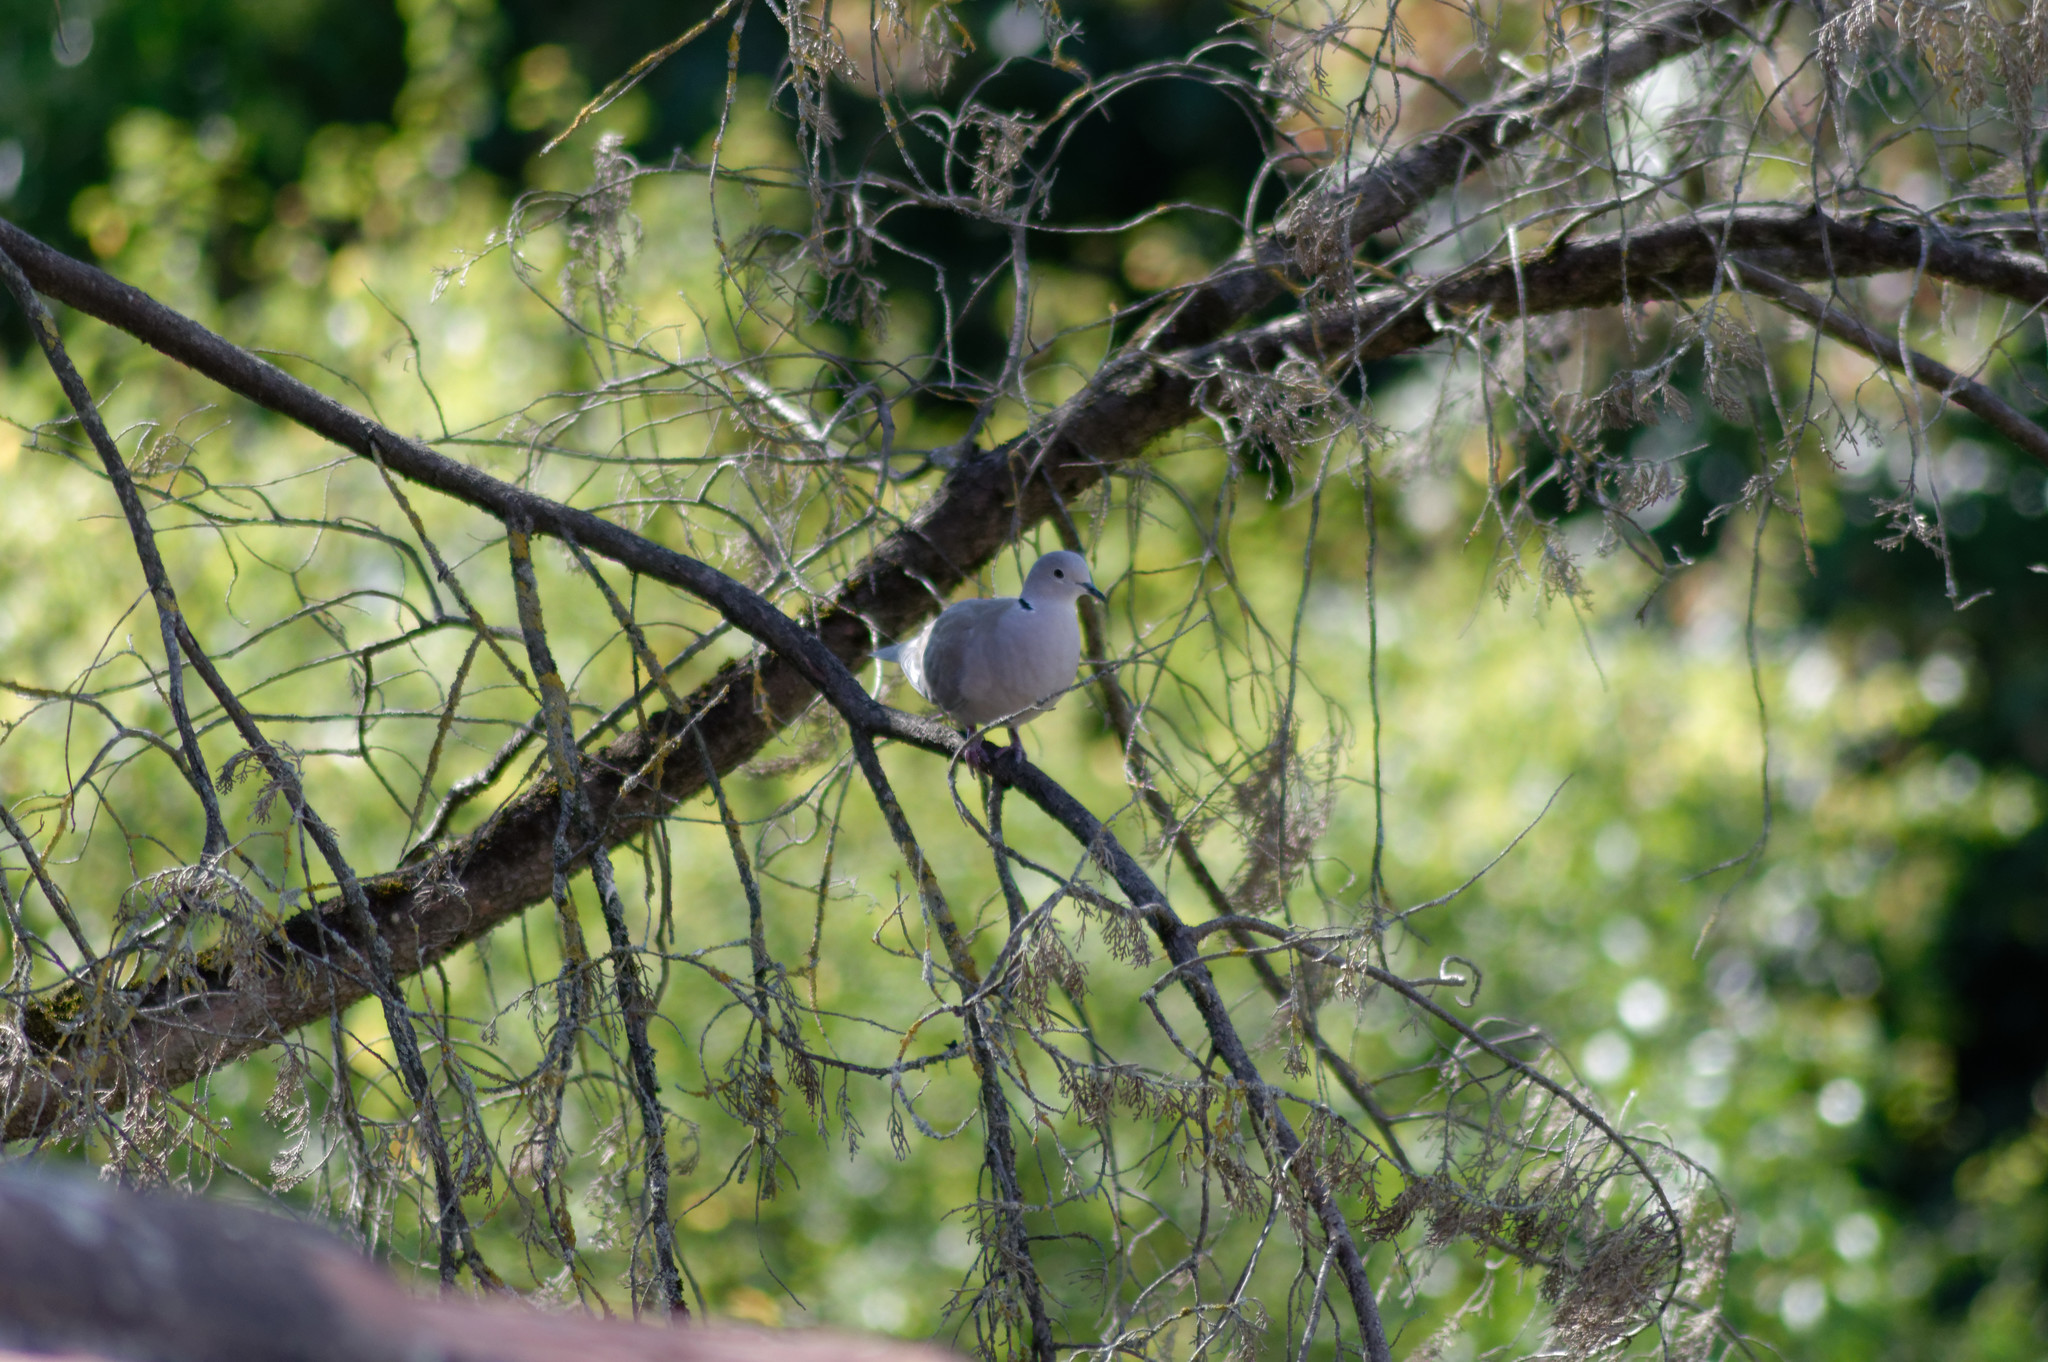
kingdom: Animalia
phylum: Chordata
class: Aves
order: Columbiformes
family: Columbidae
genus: Streptopelia
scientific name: Streptopelia decaocto
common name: Eurasian collared dove
